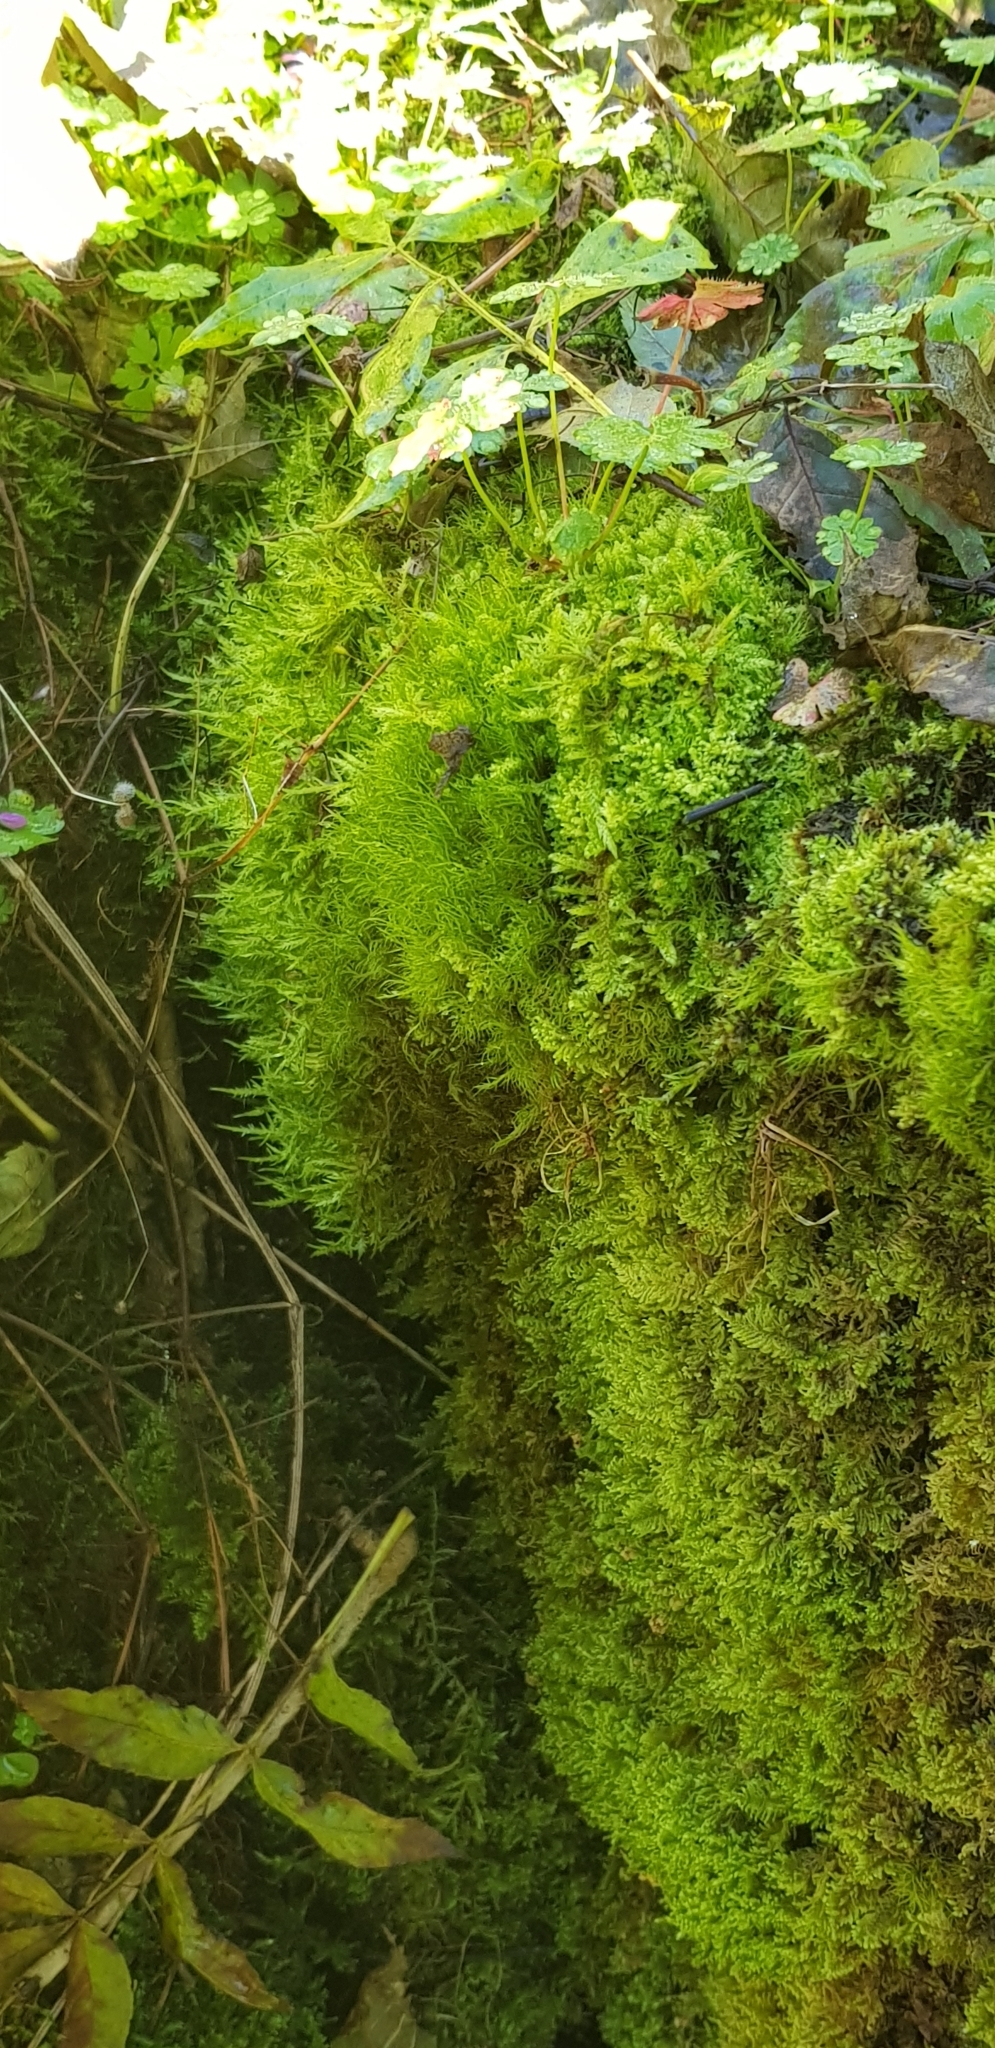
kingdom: Plantae
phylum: Bryophyta
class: Bryopsida
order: Scouleriales
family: Flexitrichaceae
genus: Flexitrichum
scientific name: Flexitrichum gracile
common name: Slender ditrichum
